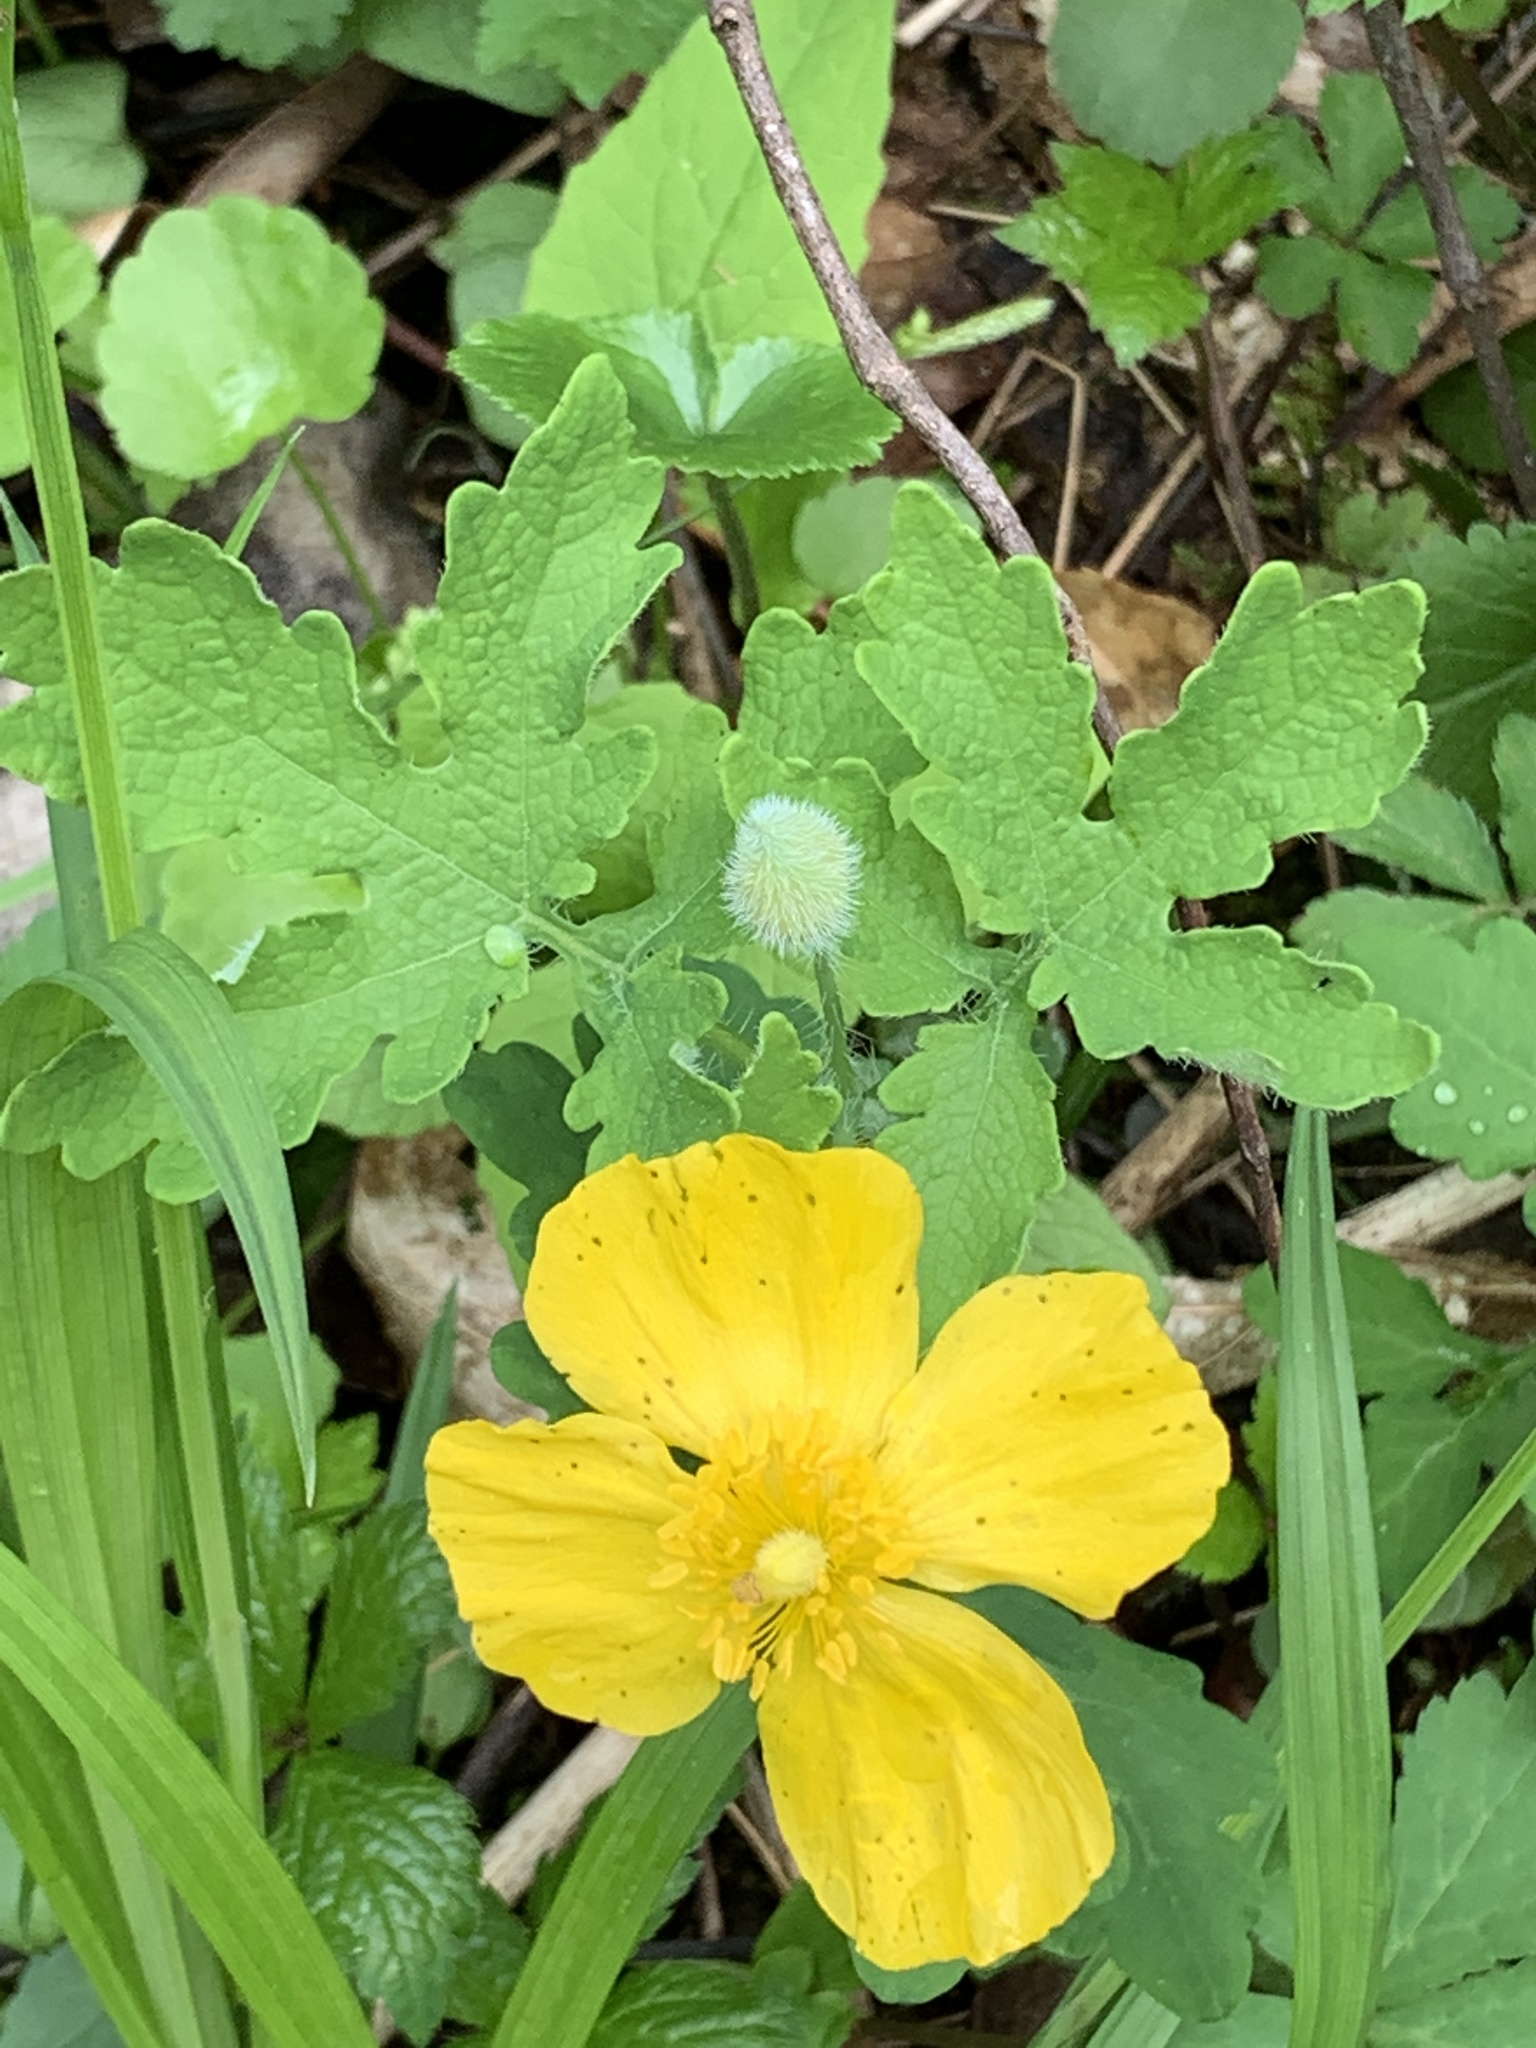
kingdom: Plantae
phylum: Tracheophyta
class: Magnoliopsida
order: Ranunculales
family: Papaveraceae
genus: Stylophorum
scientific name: Stylophorum diphyllum
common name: Celandine poppy
